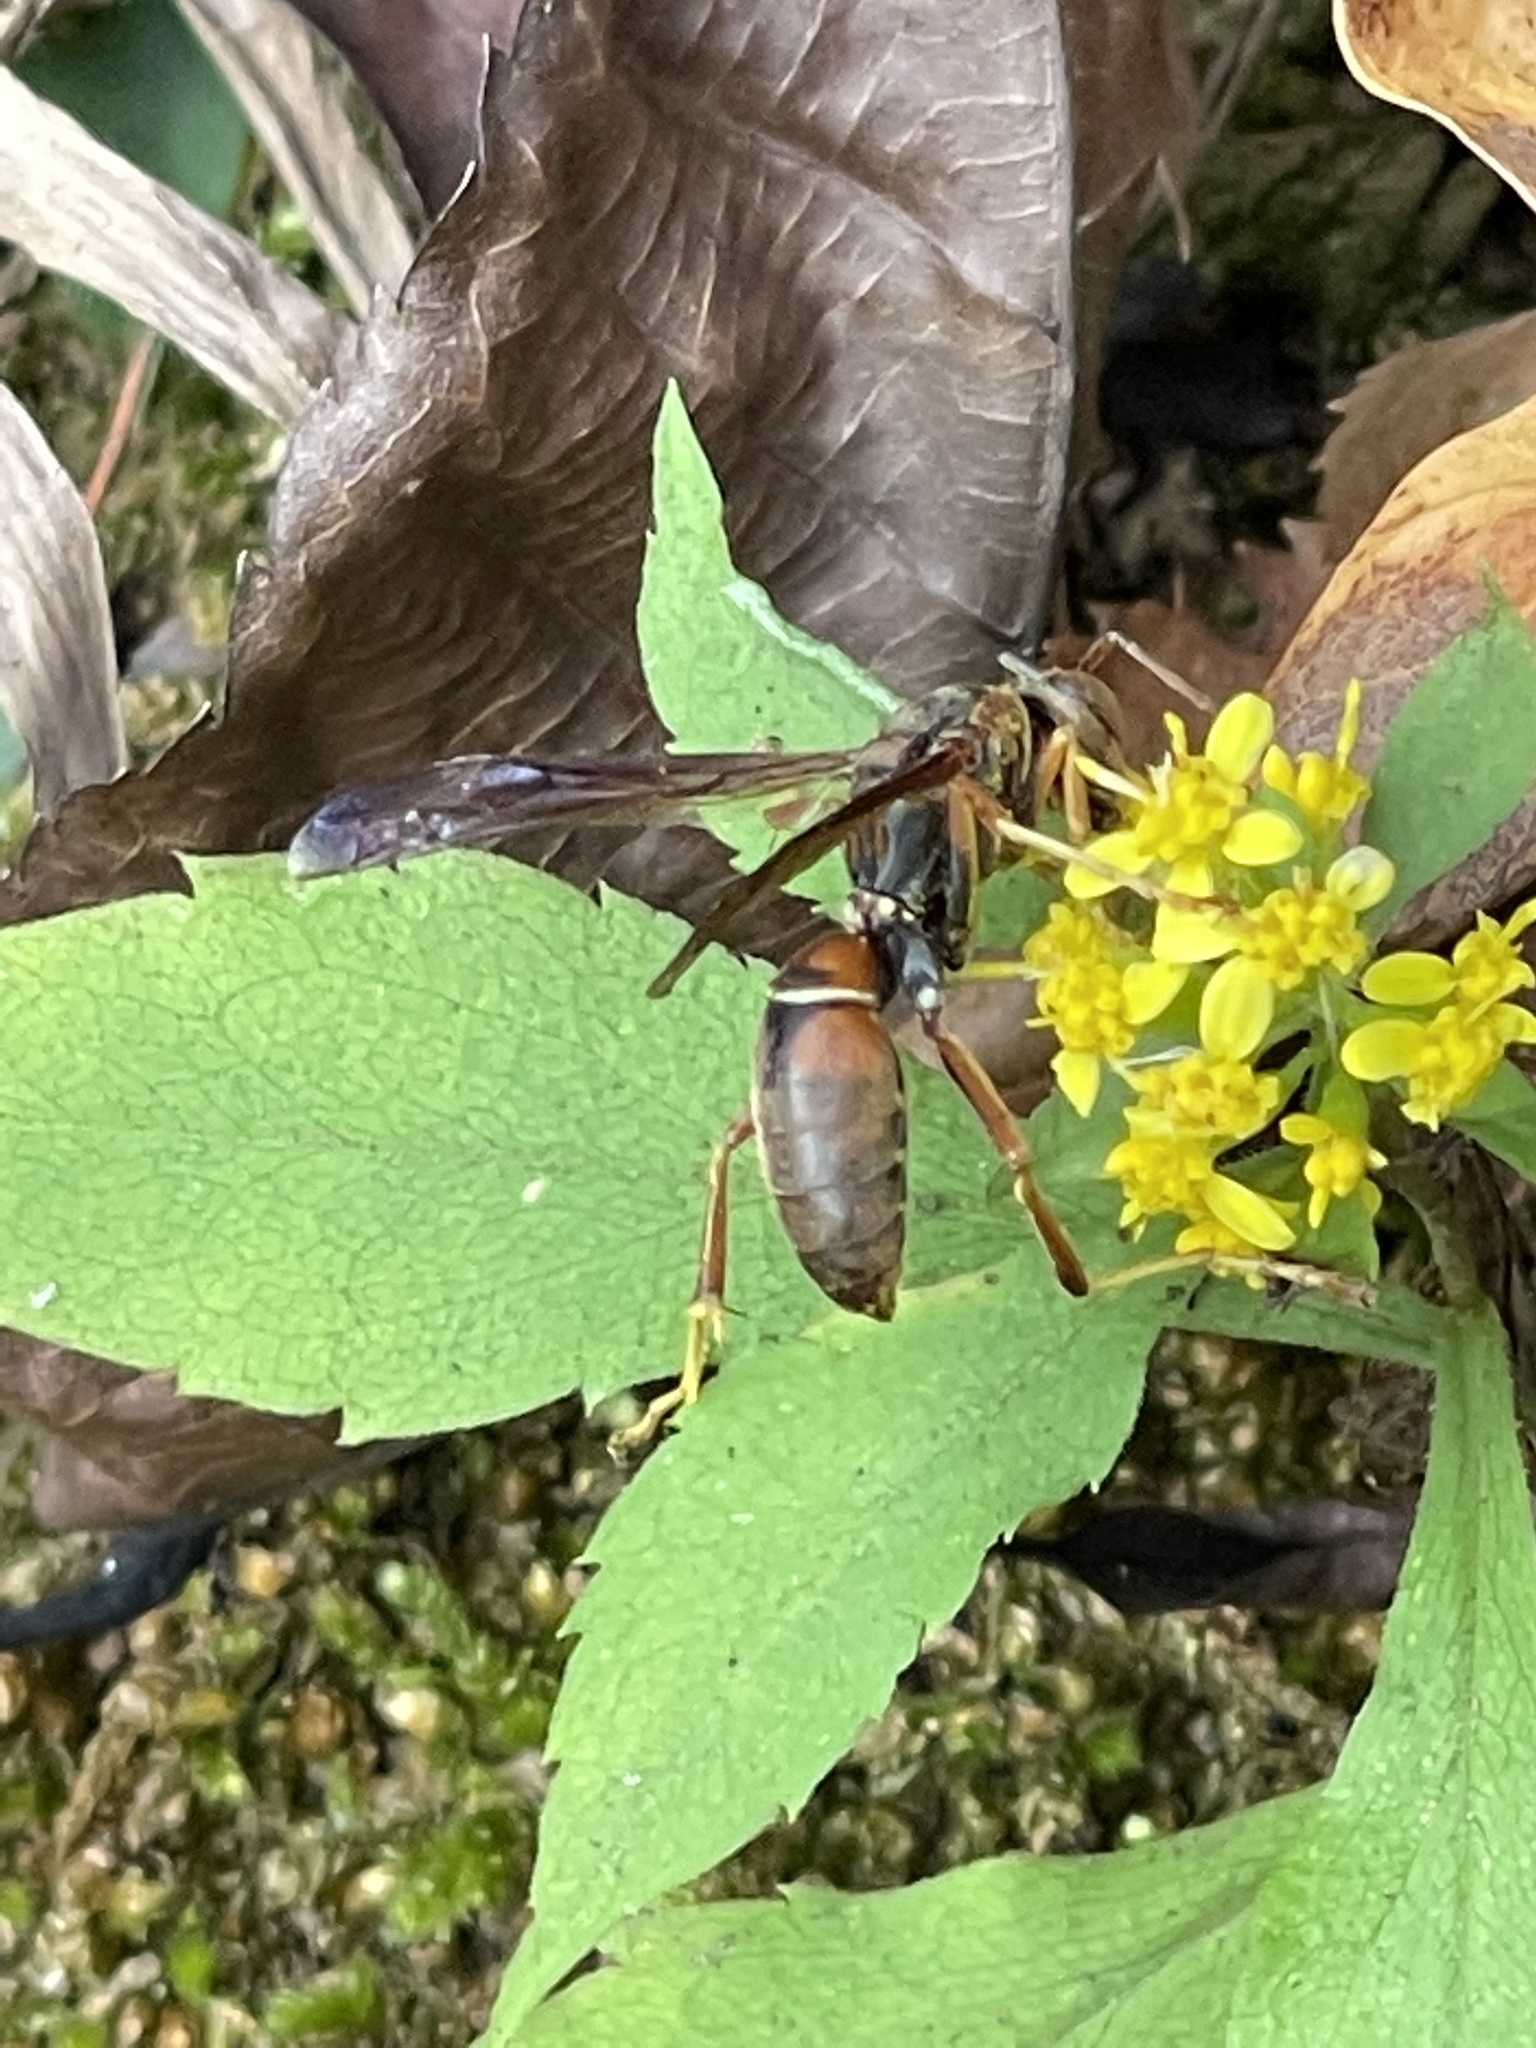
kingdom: Animalia
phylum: Arthropoda
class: Insecta
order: Hymenoptera
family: Eumenidae
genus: Polistes
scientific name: Polistes fuscatus
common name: Dark paper wasp
